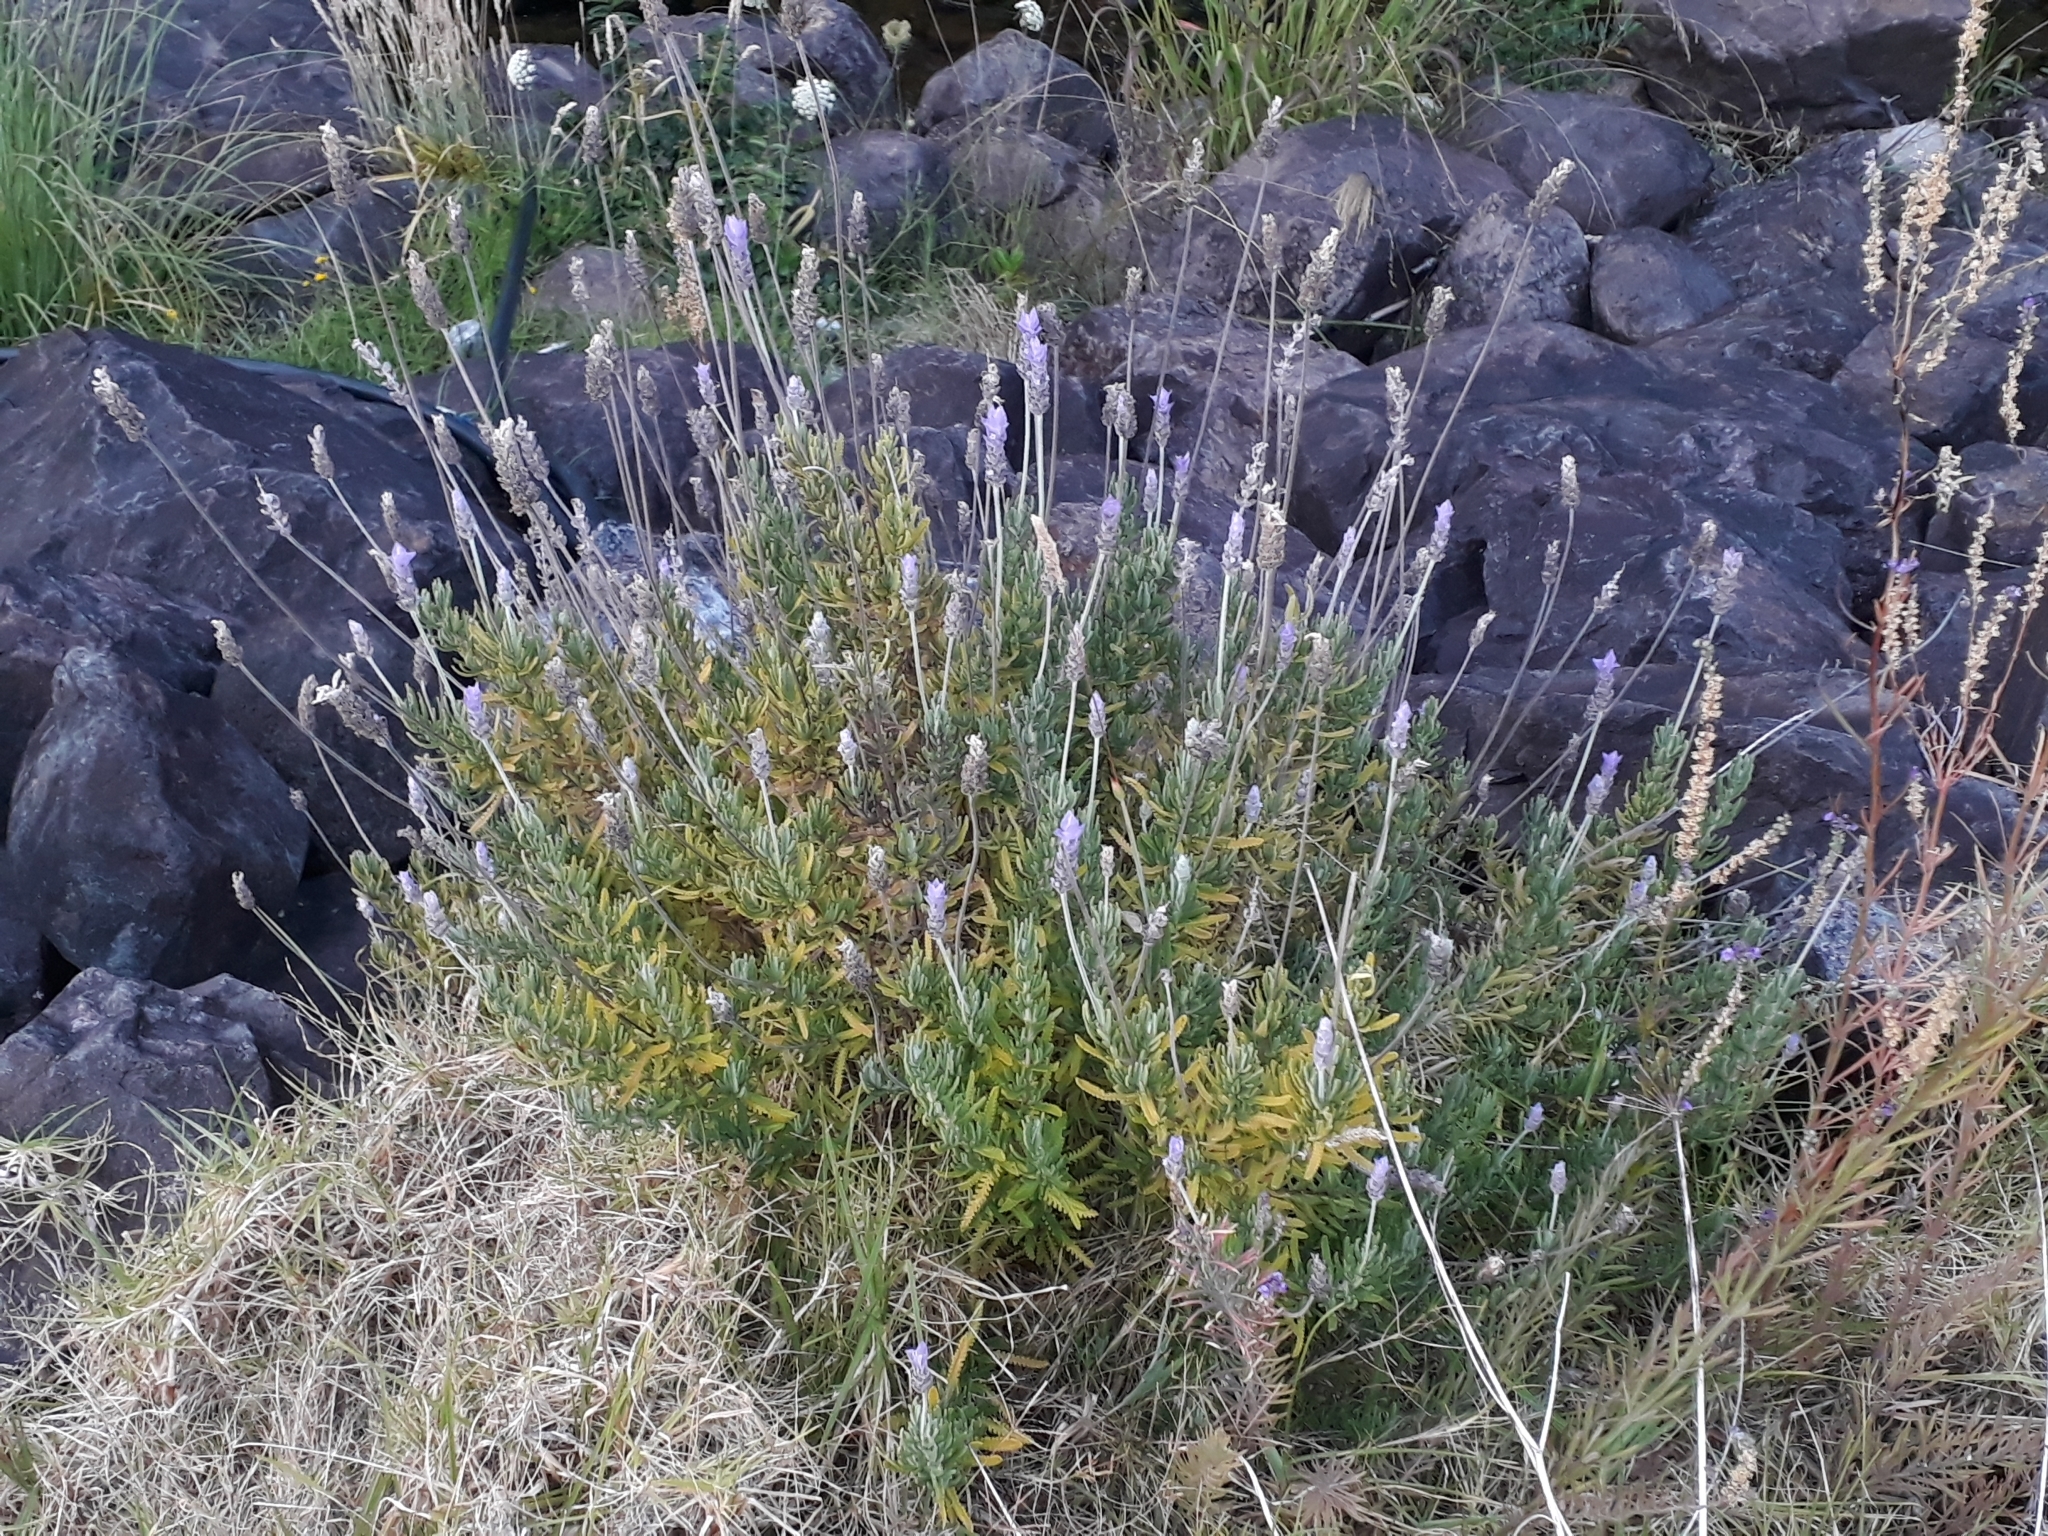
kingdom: Plantae
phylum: Tracheophyta
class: Magnoliopsida
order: Lamiales
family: Lamiaceae
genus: Lavandula
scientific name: Lavandula dentata
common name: French lavender
